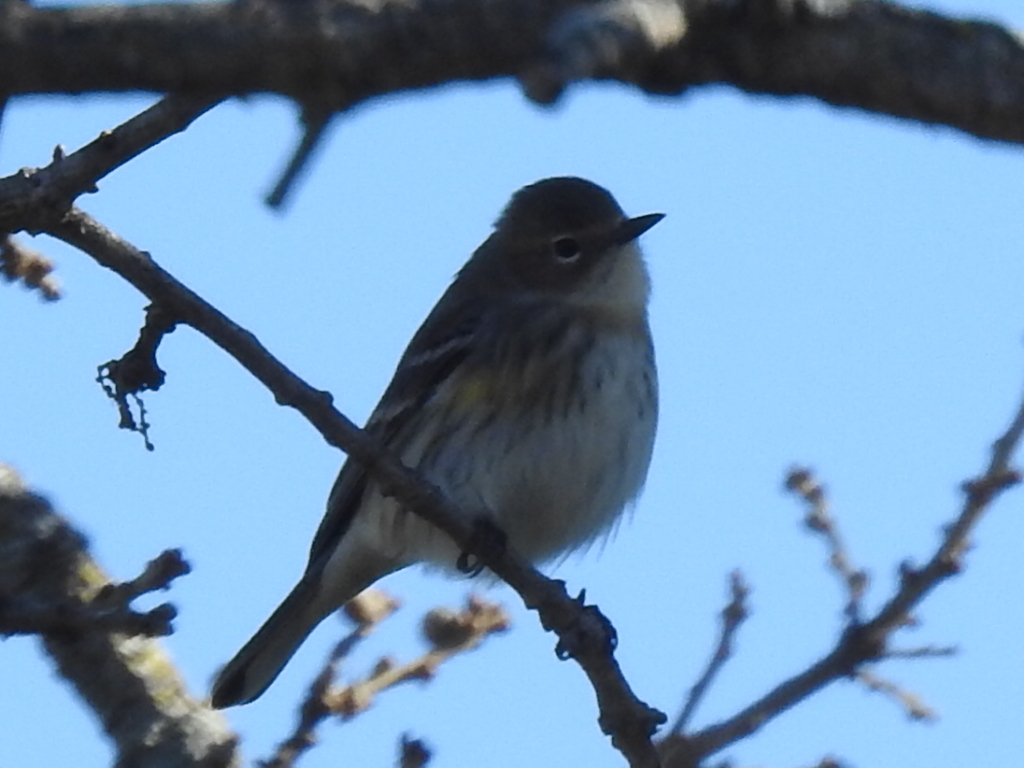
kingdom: Animalia
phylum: Chordata
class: Aves
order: Passeriformes
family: Parulidae
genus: Setophaga
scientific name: Setophaga coronata
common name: Myrtle warbler
